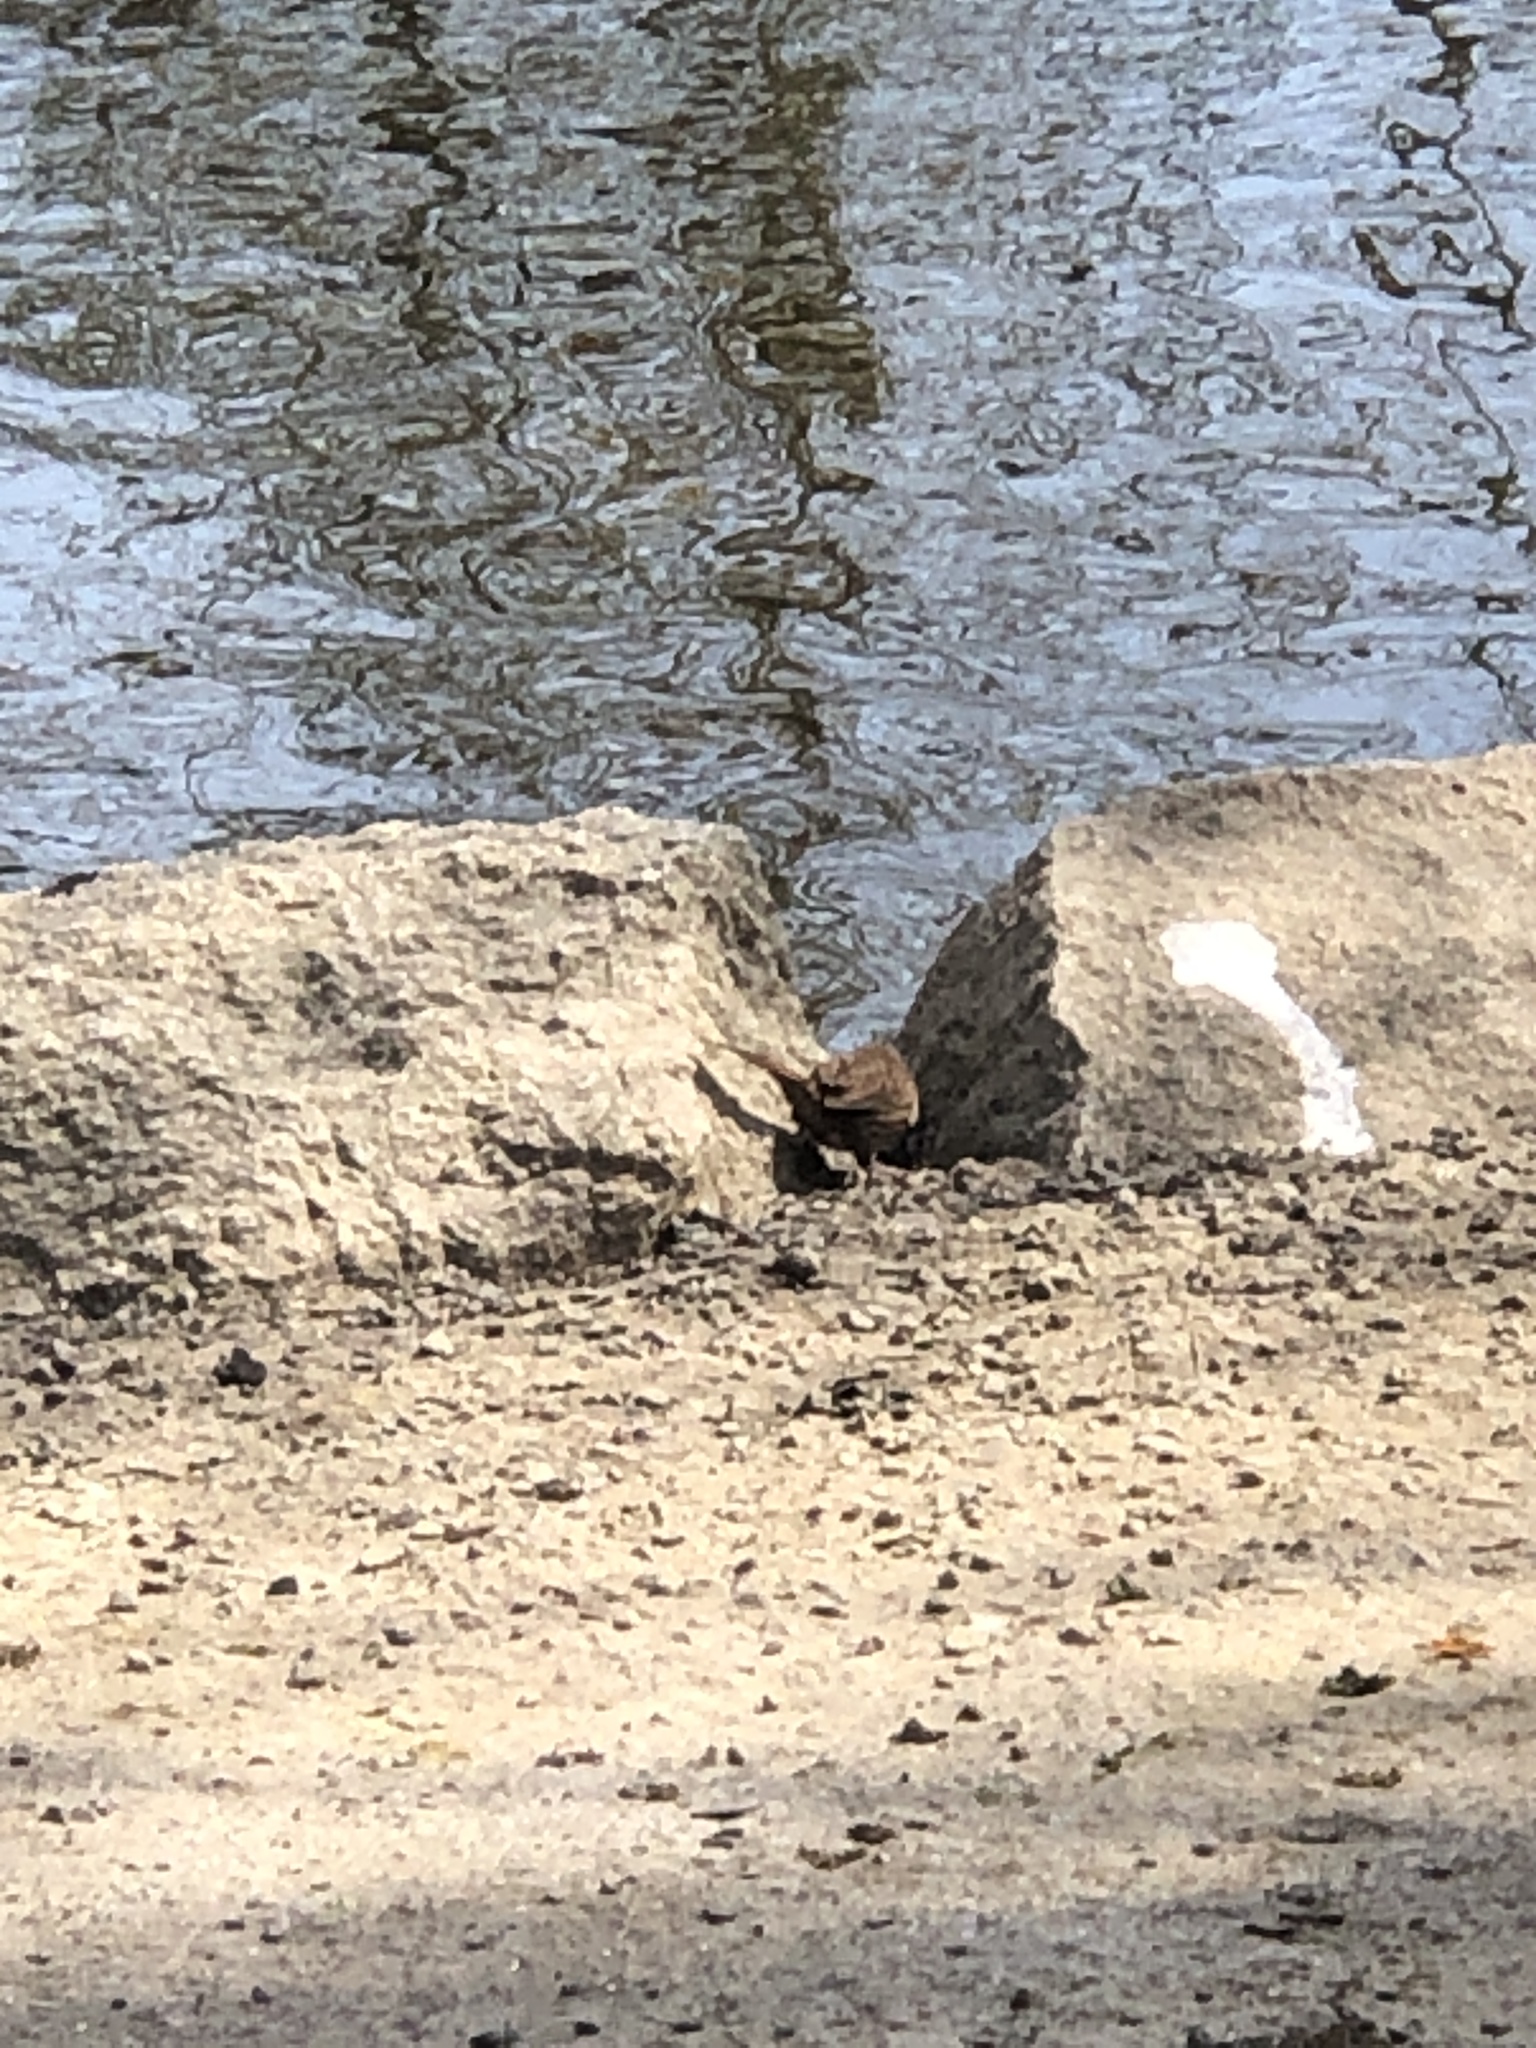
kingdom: Animalia
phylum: Chordata
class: Aves
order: Passeriformes
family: Passerellidae
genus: Melospiza
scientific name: Melospiza melodia
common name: Song sparrow
